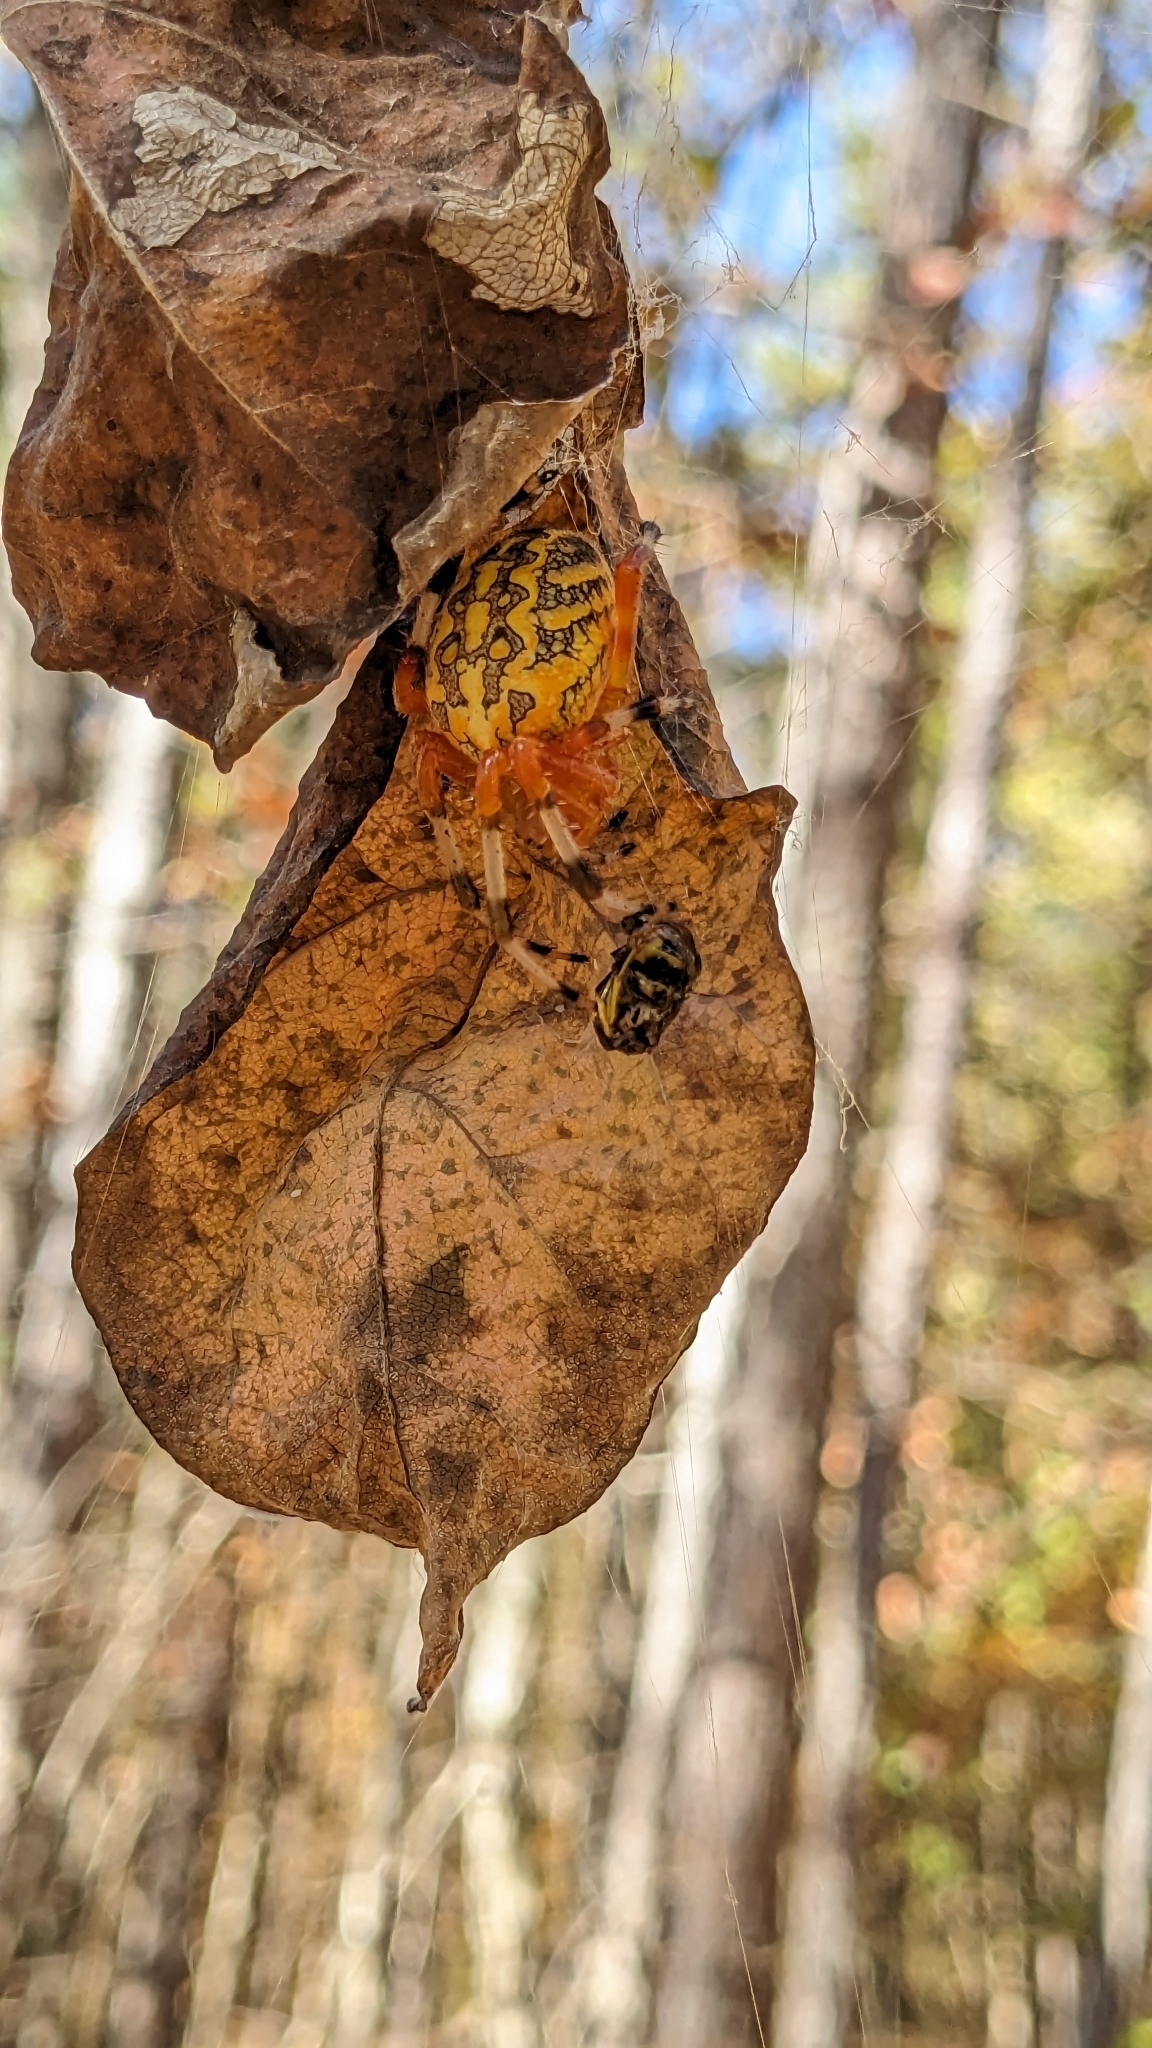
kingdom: Animalia
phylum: Arthropoda
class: Arachnida
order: Araneae
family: Araneidae
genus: Araneus
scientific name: Araneus marmoreus
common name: Marbled orbweaver
